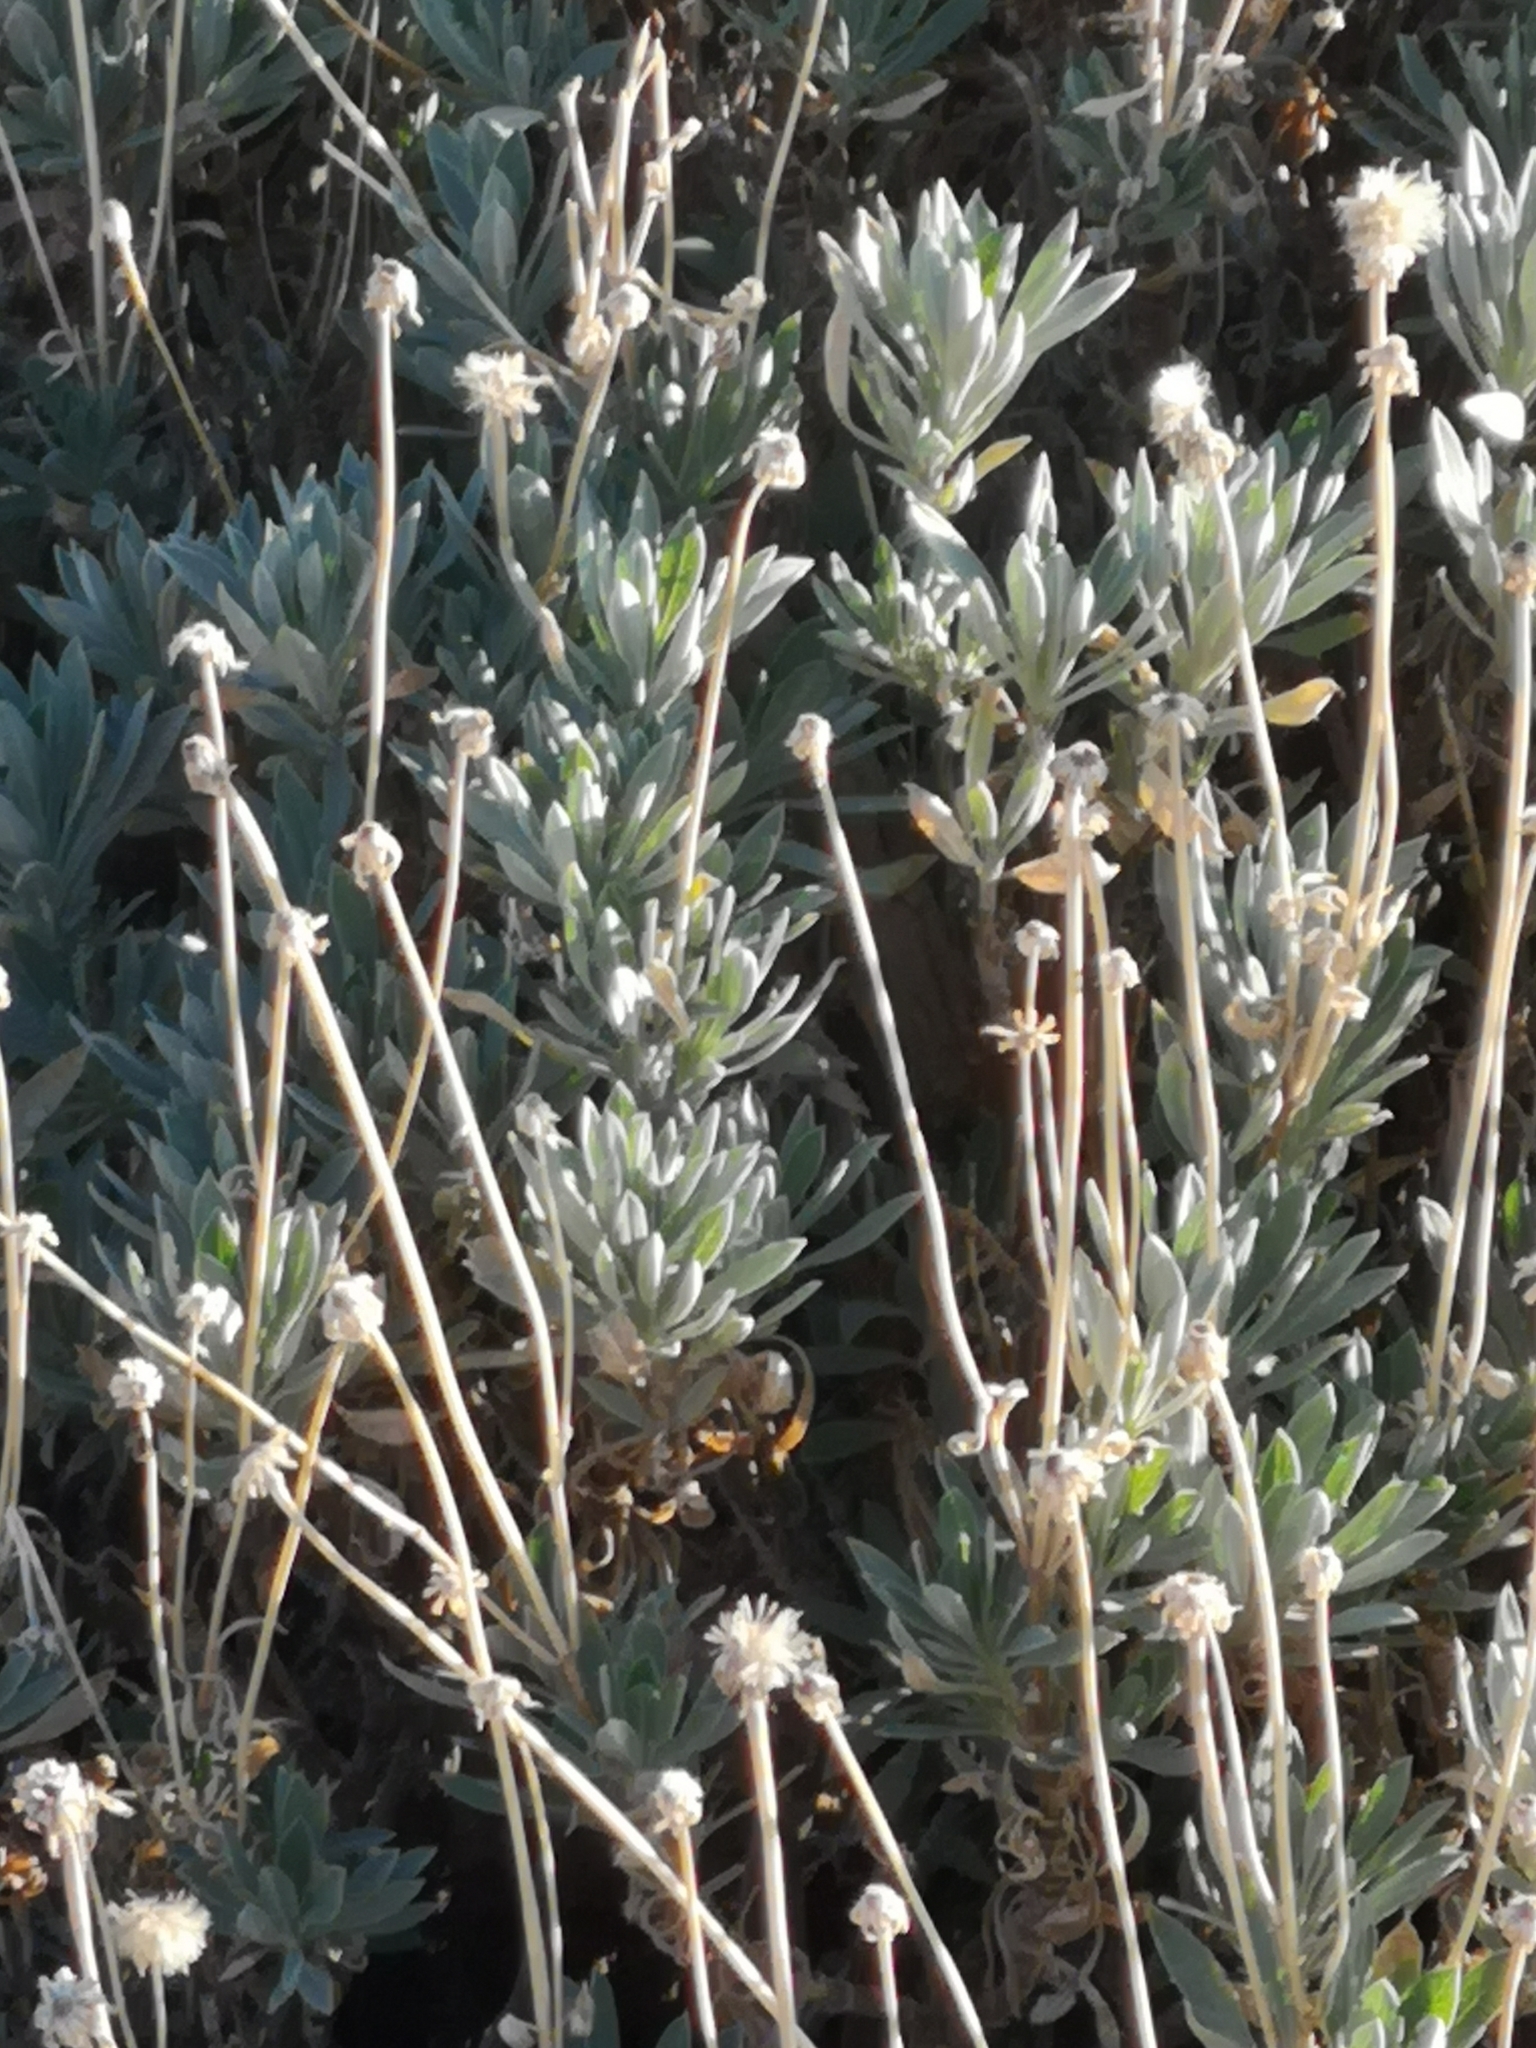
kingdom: Plantae
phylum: Tracheophyta
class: Magnoliopsida
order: Dipsacales
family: Caprifoliaceae
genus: Pterocephalus
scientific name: Pterocephalus lasiospermus
